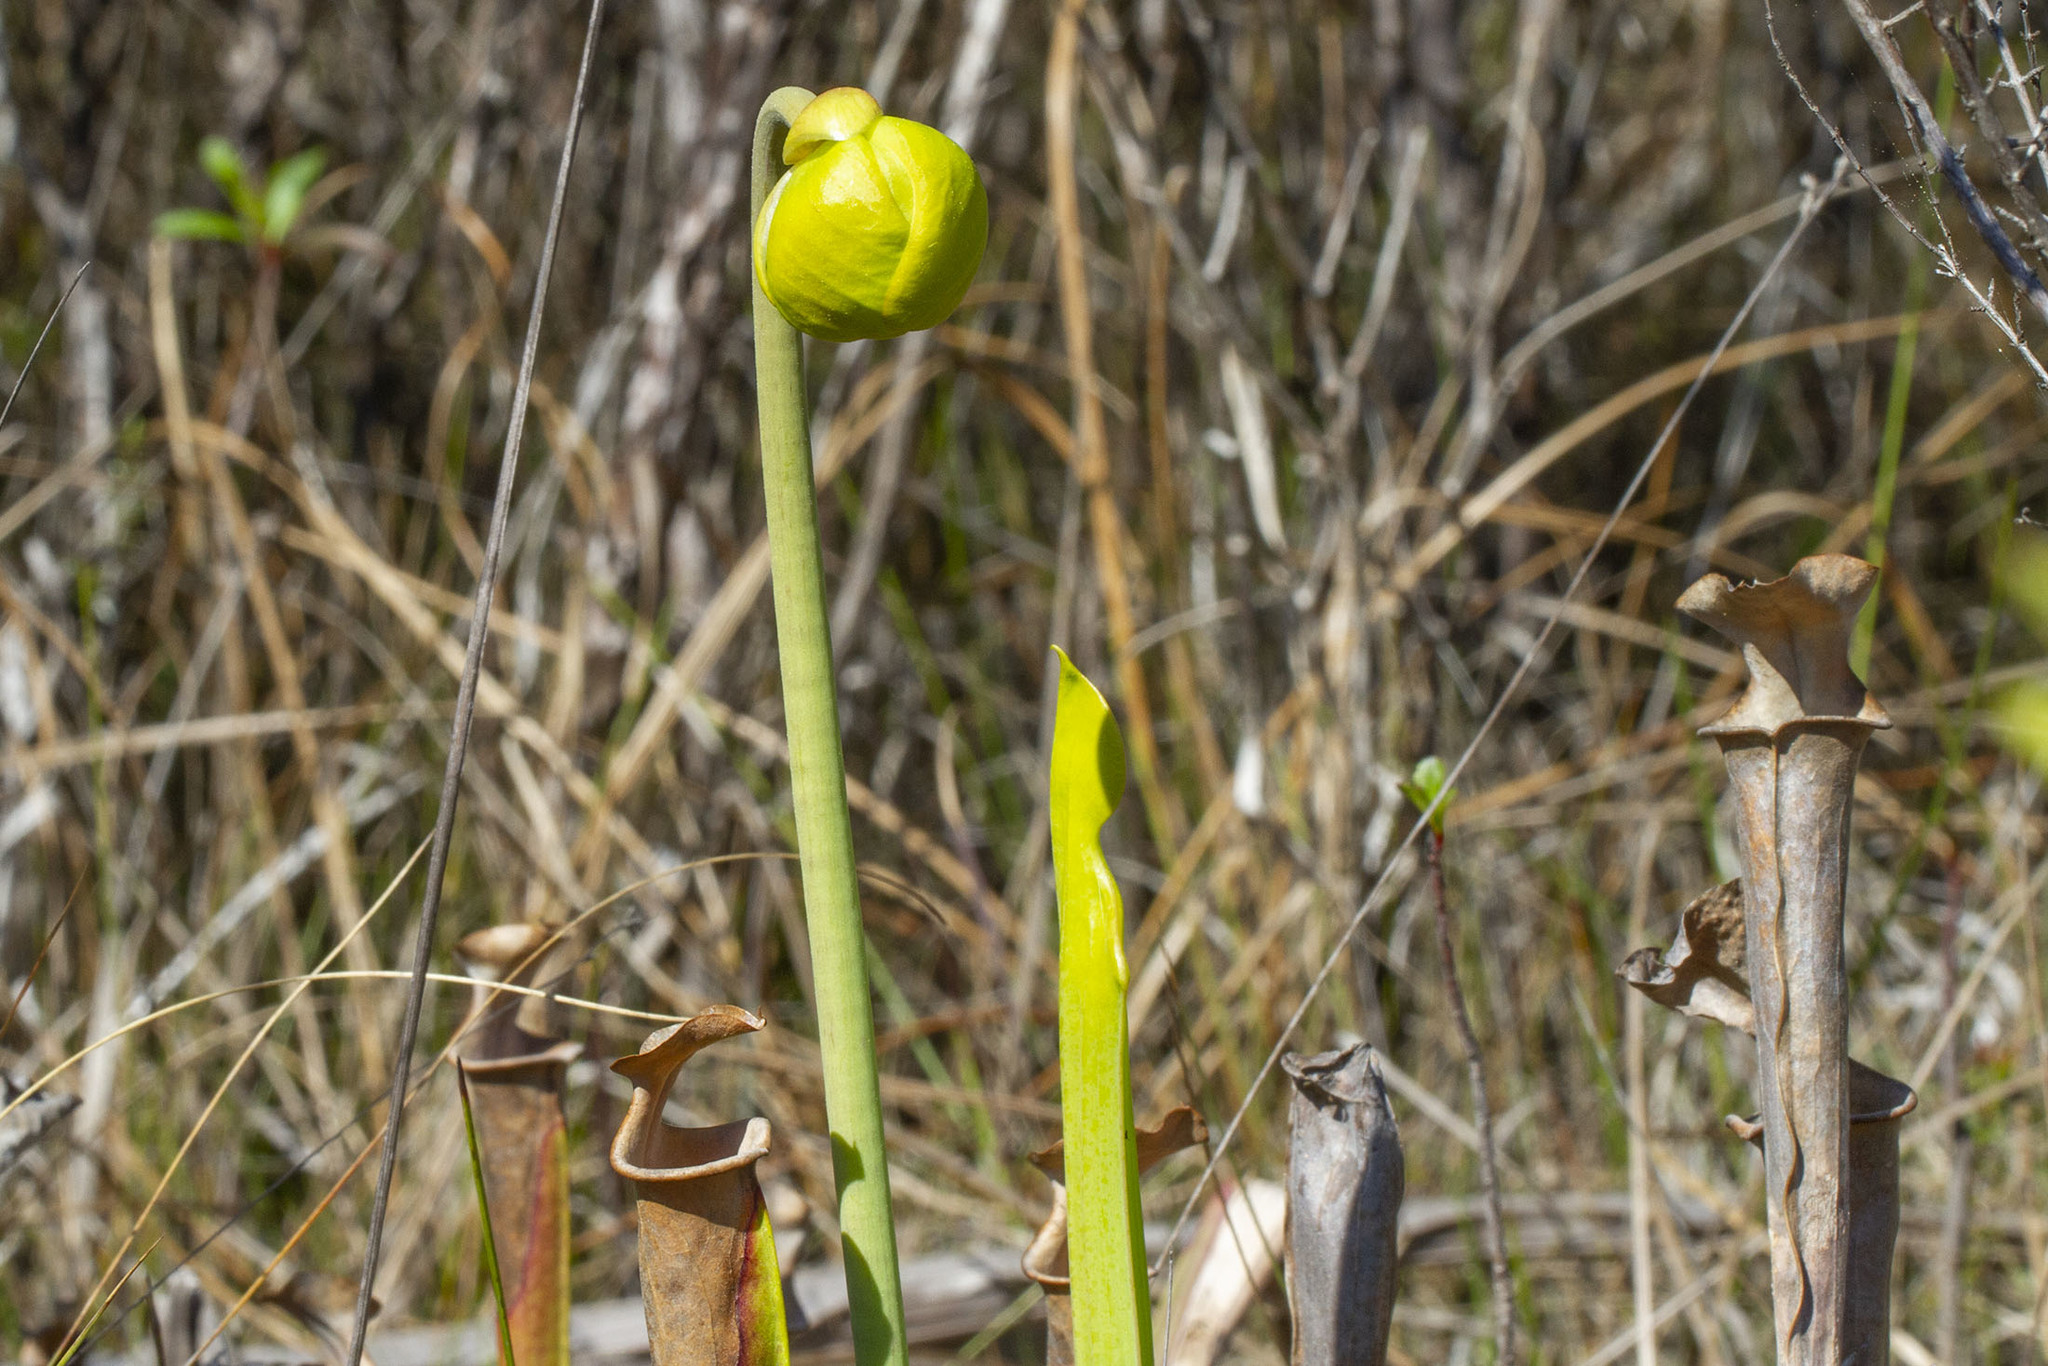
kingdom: Plantae
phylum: Tracheophyta
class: Magnoliopsida
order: Ericales
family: Sarraceniaceae
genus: Sarracenia
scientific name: Sarracenia flava
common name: Trumpets
